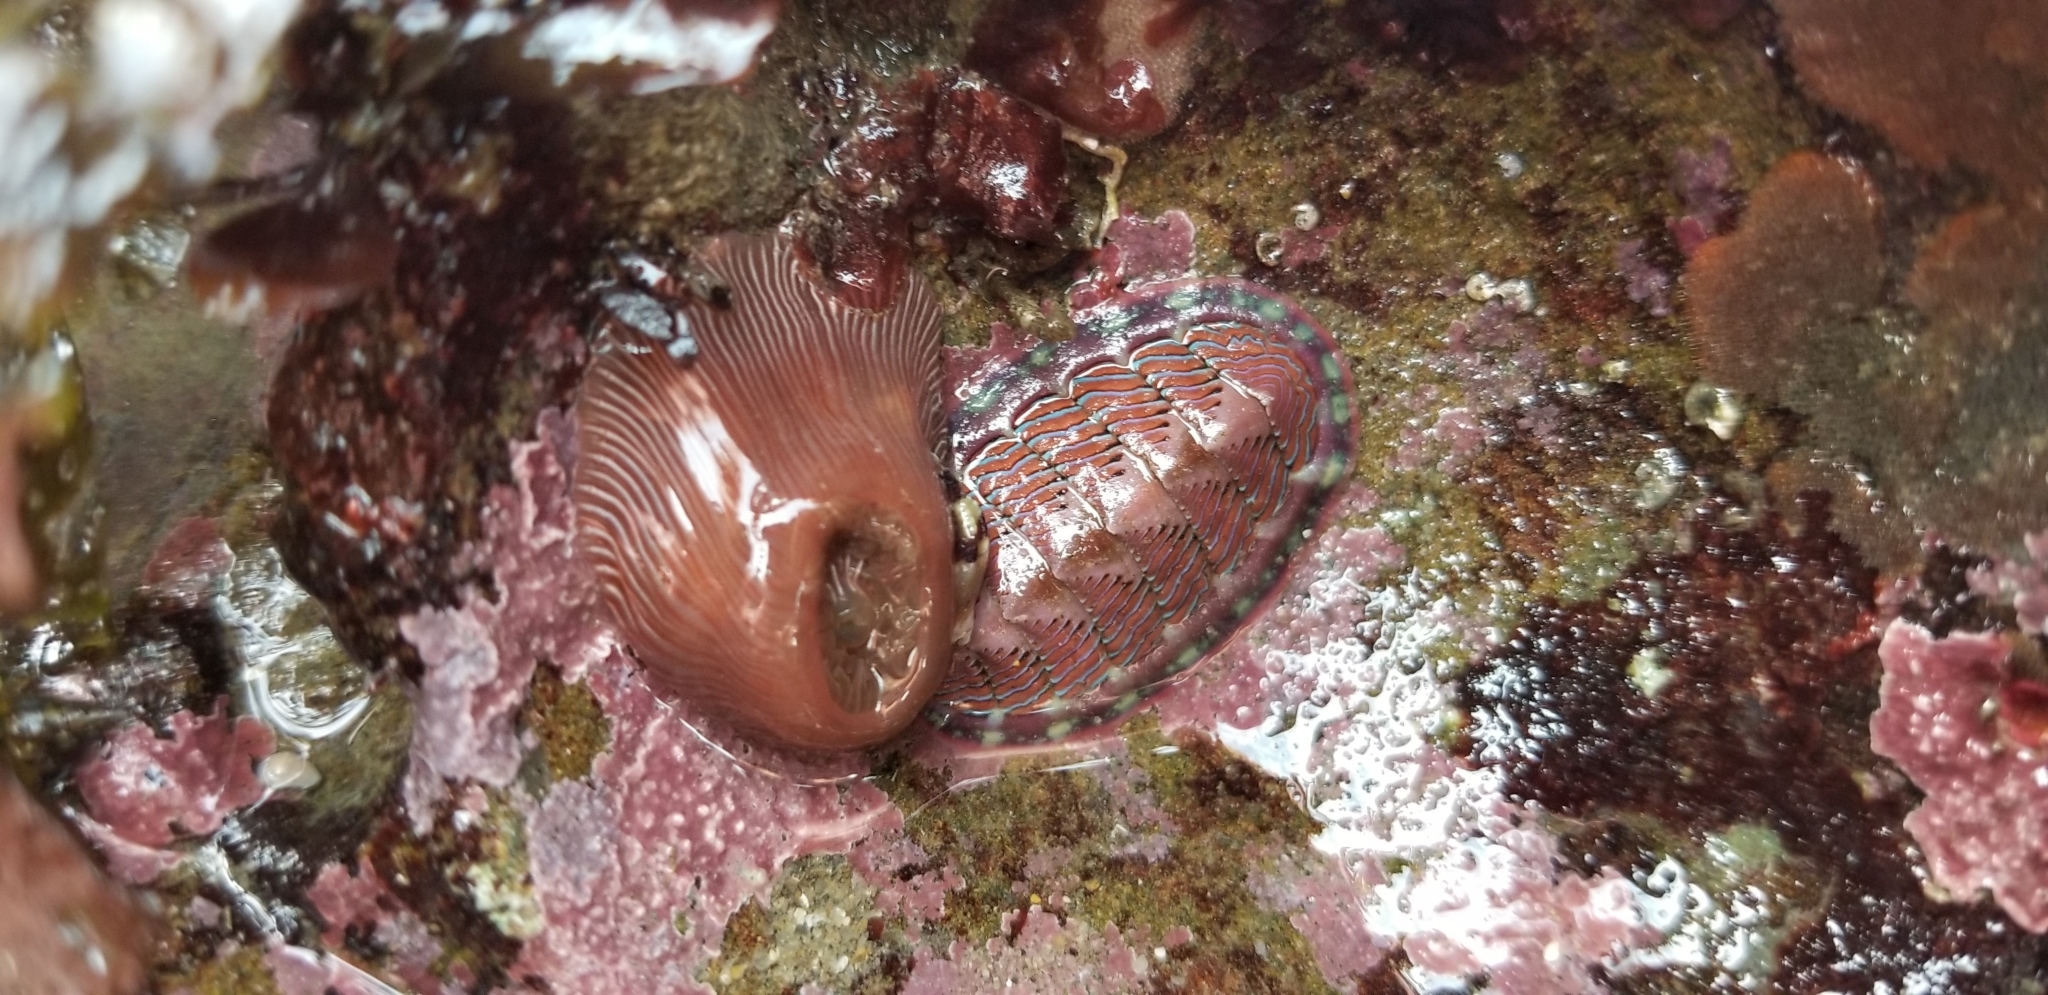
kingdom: Animalia
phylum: Mollusca
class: Polyplacophora
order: Chitonida
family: Tonicellidae
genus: Tonicella
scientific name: Tonicella lineata
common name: Lined chiton
